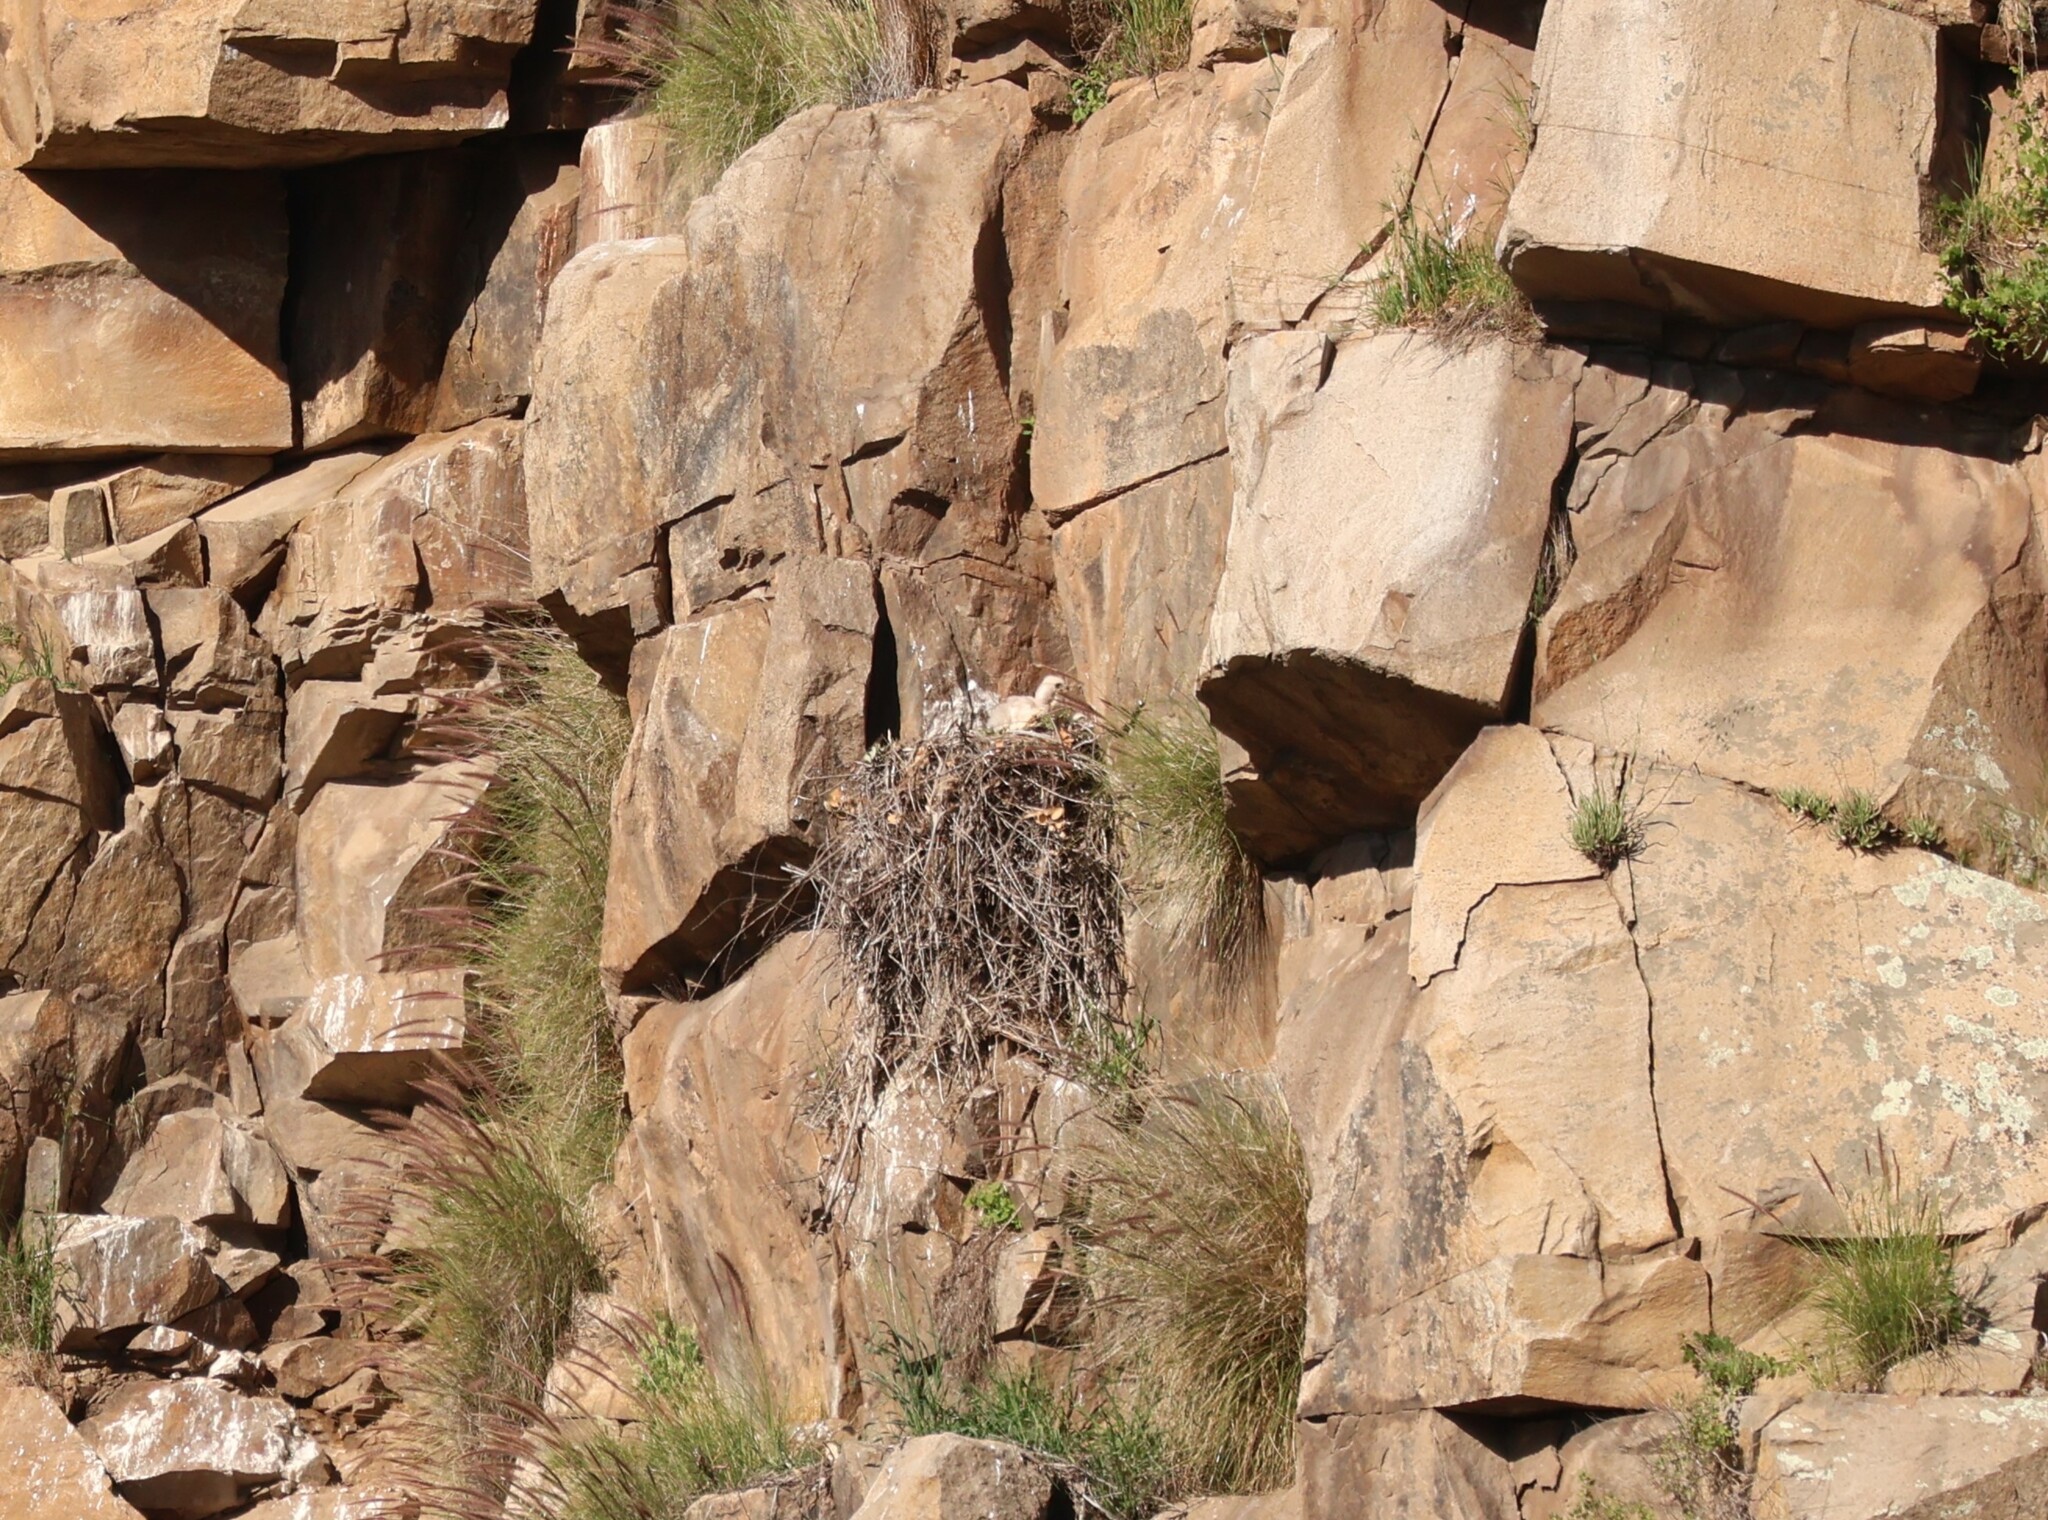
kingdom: Animalia
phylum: Chordata
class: Aves
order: Accipitriformes
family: Accipitridae
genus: Buteo
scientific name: Buteo jamaicensis
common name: Red-tailed hawk
